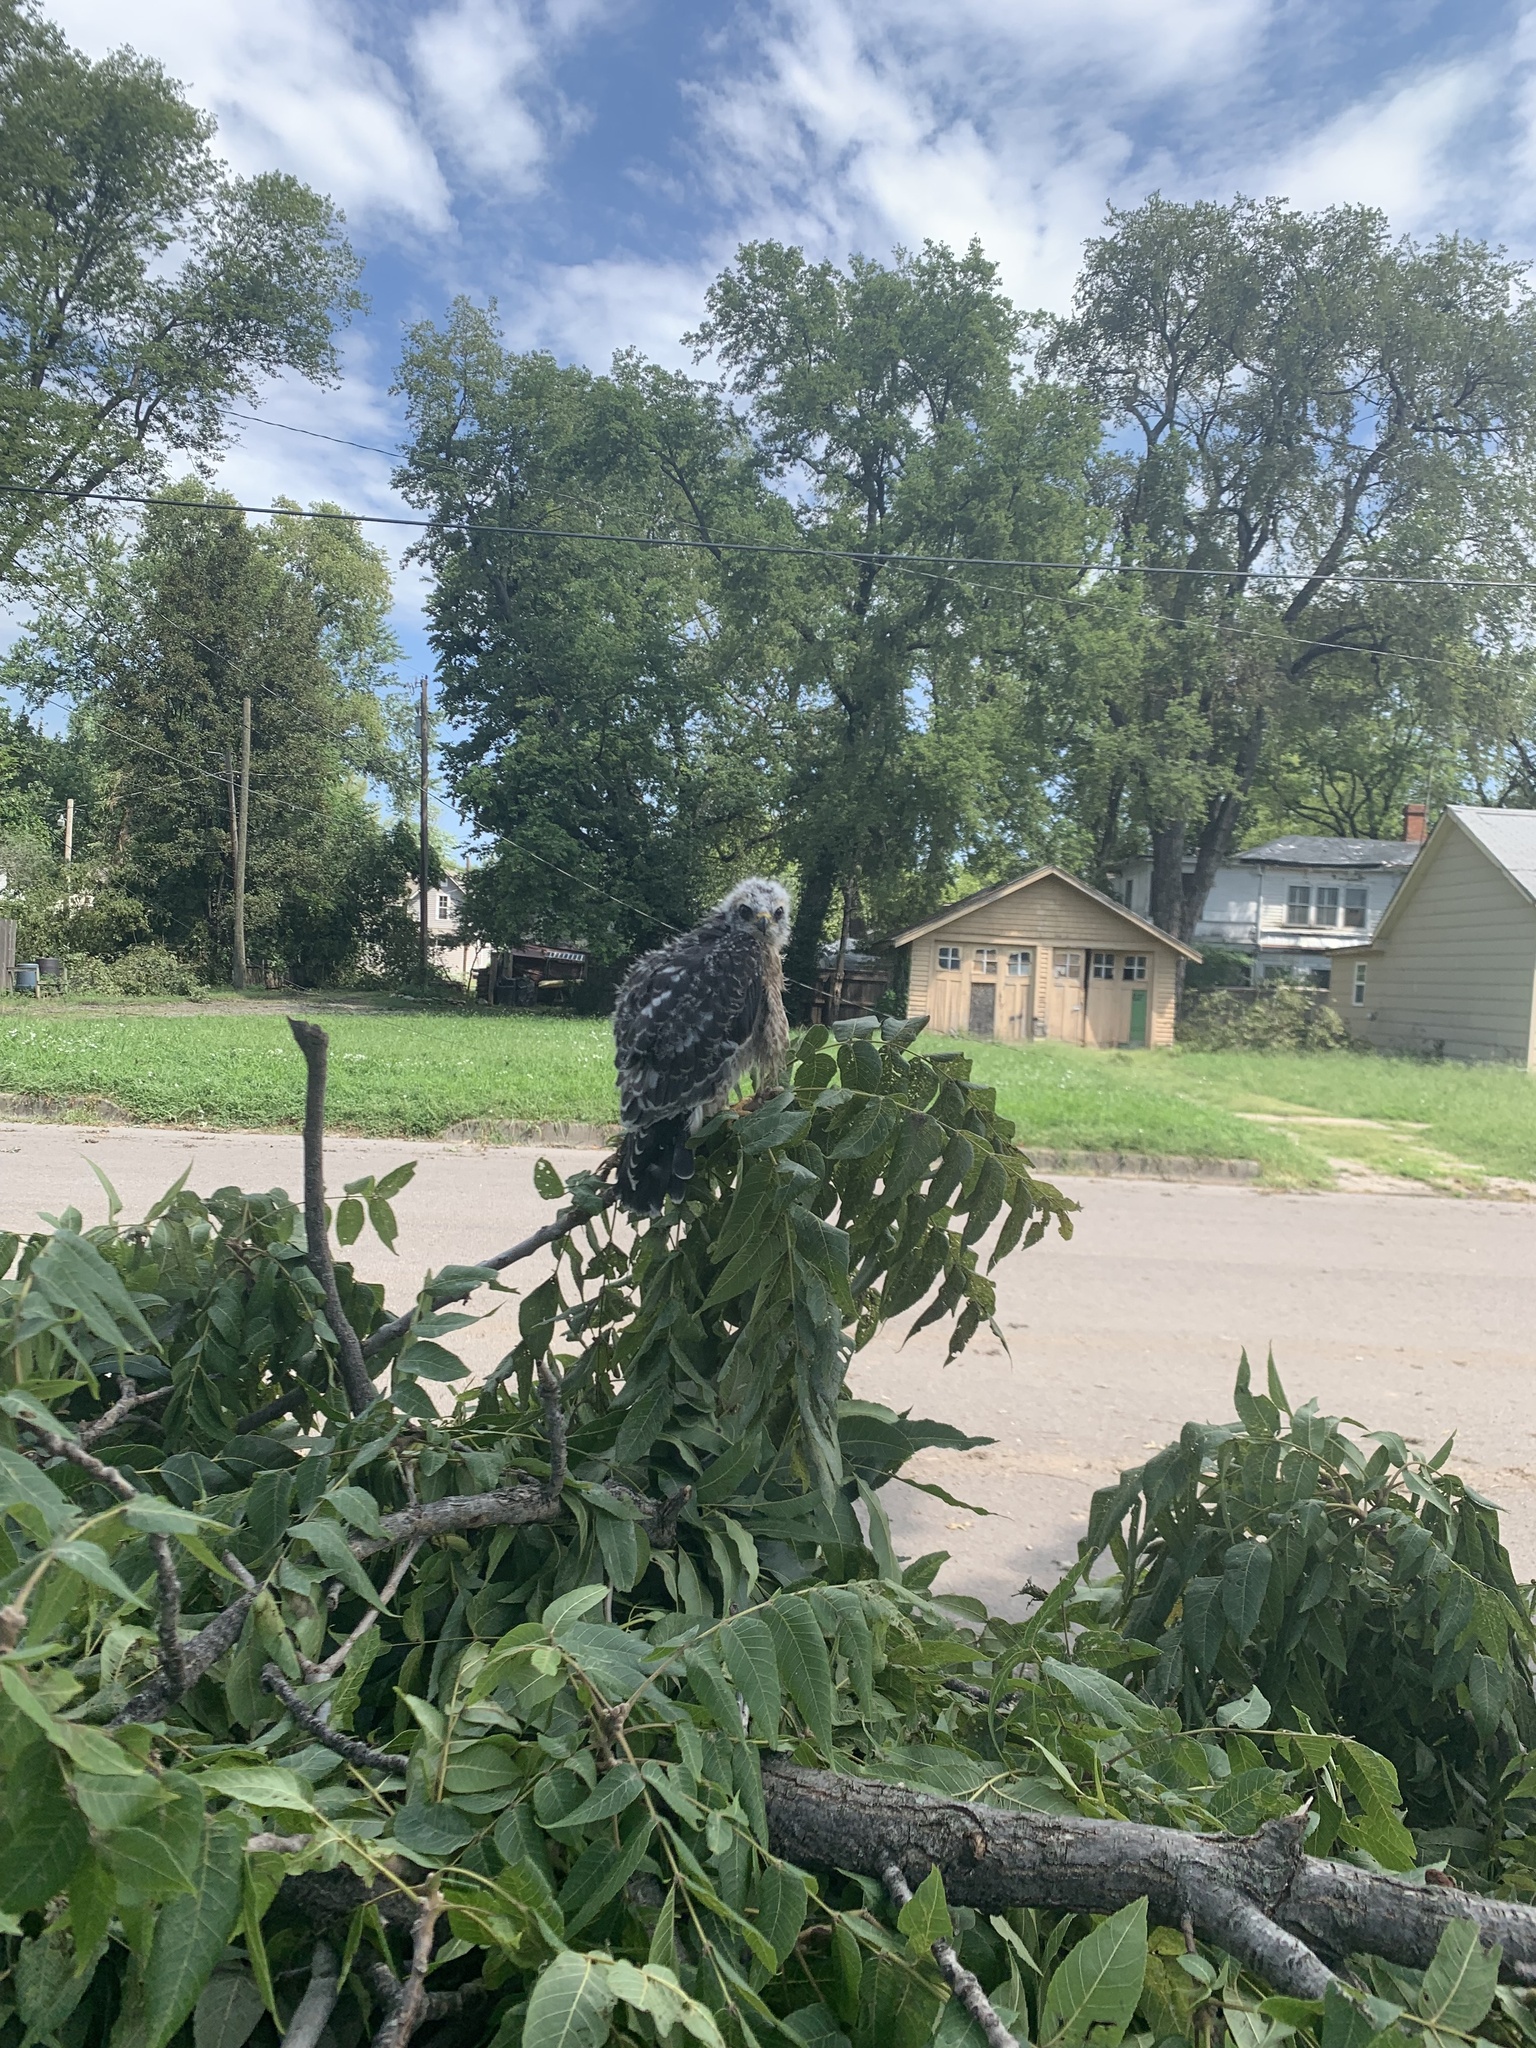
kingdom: Animalia
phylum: Chordata
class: Aves
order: Accipitriformes
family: Accipitridae
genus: Ictinia
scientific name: Ictinia mississippiensis
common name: Mississippi kite
